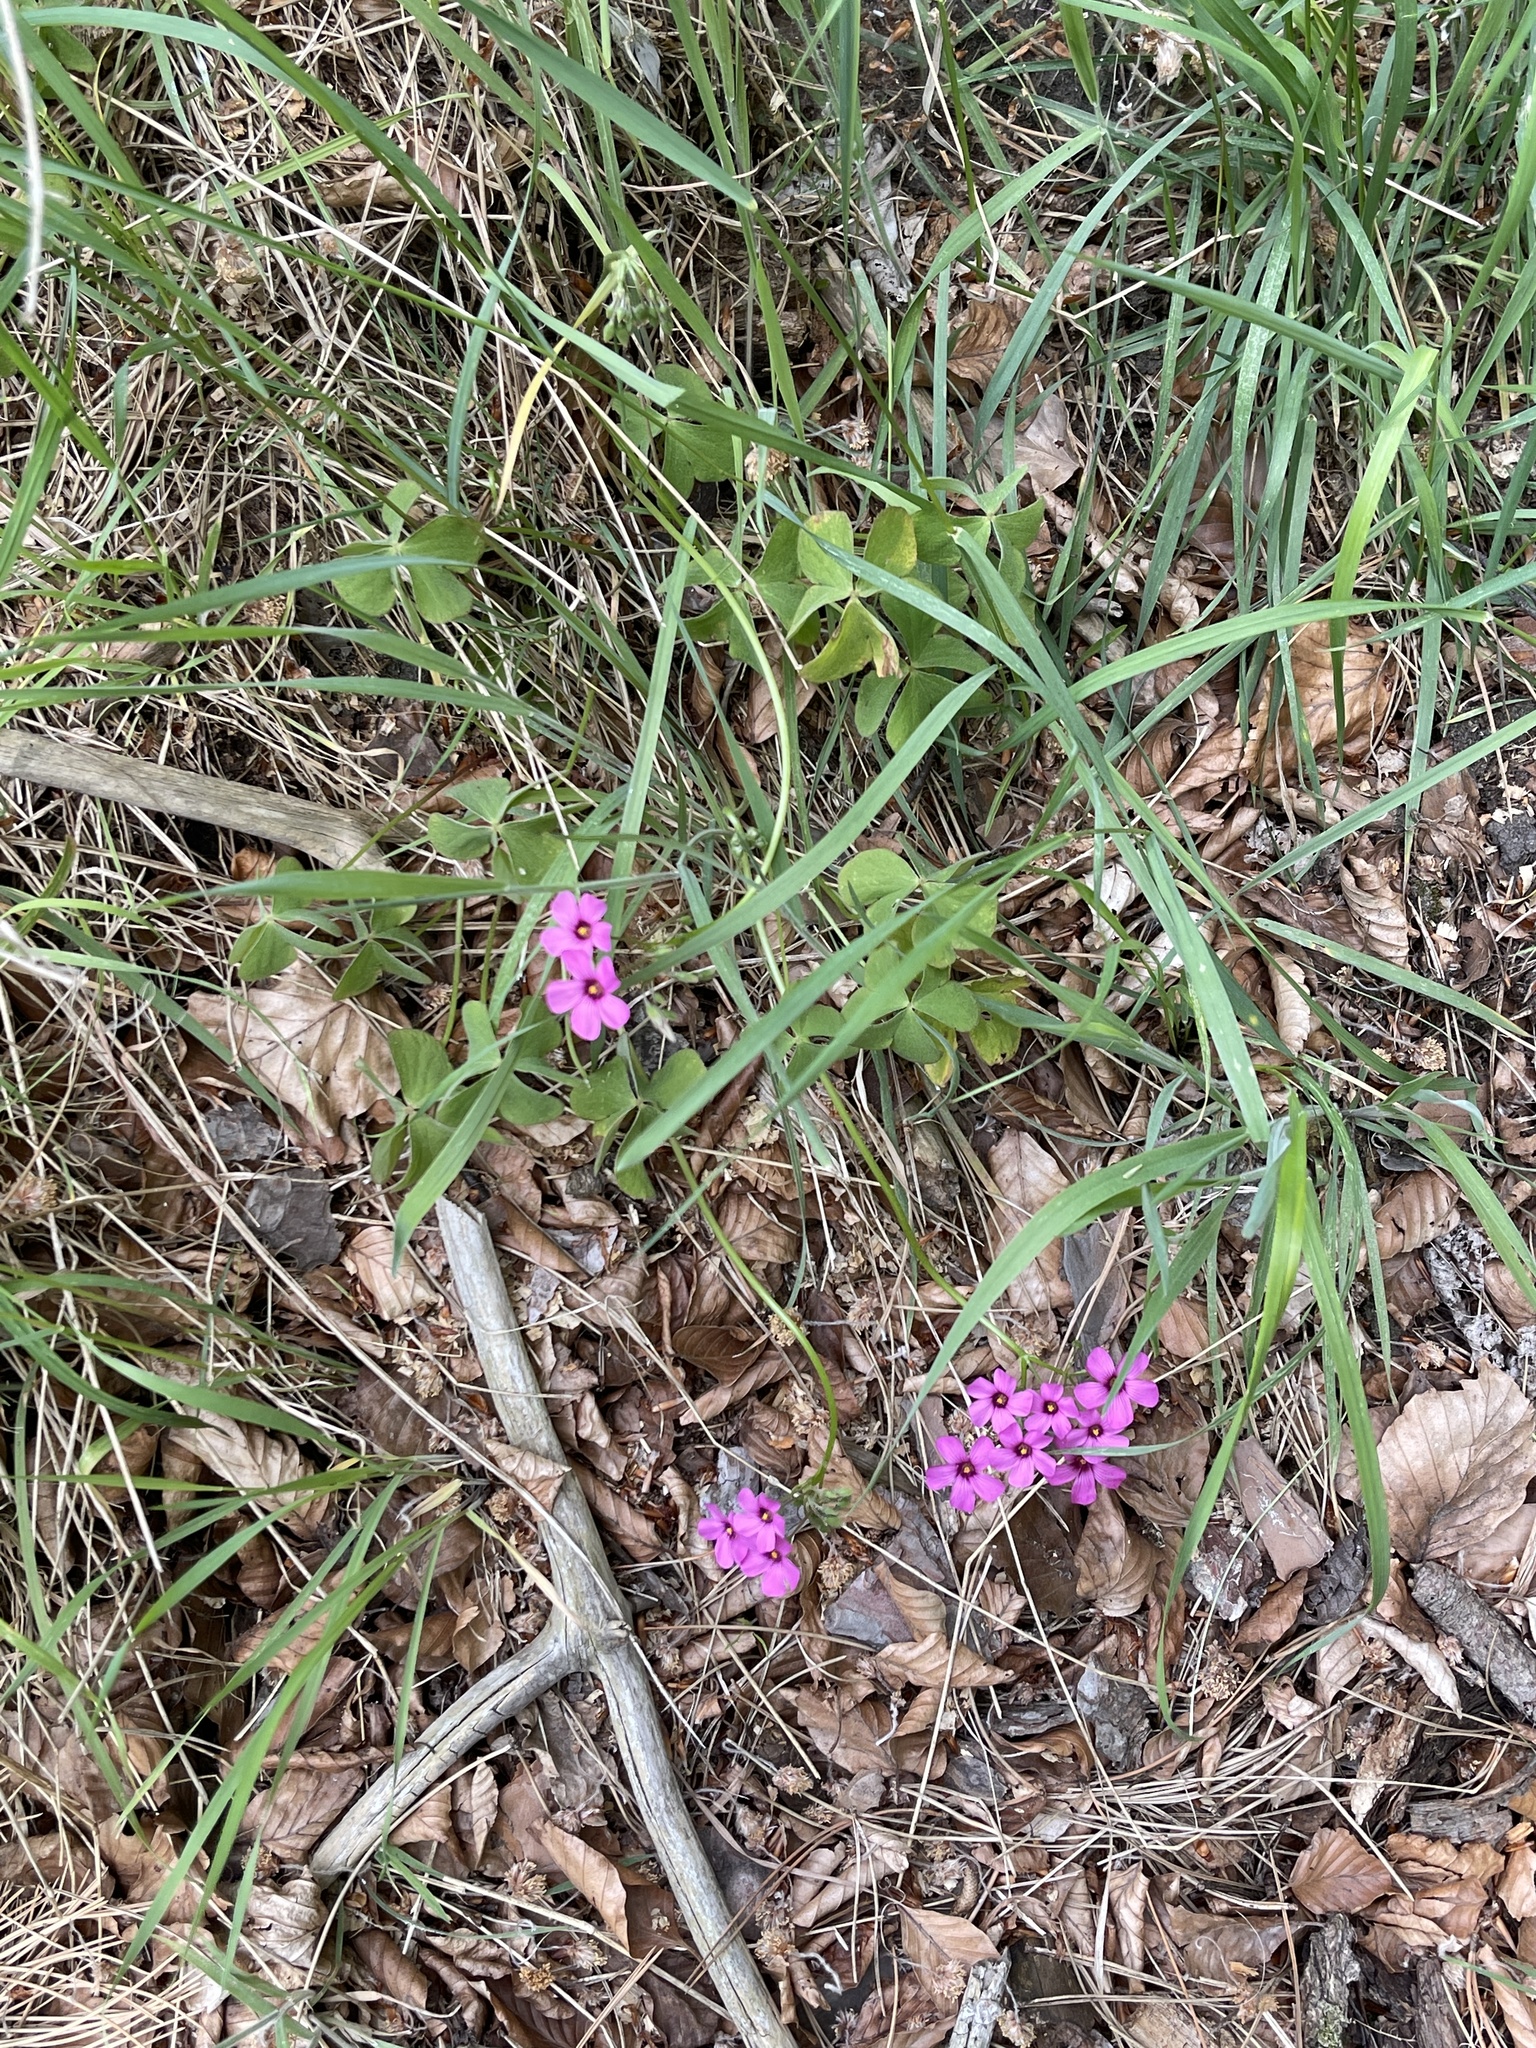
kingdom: Plantae
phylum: Tracheophyta
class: Magnoliopsida
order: Oxalidales
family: Oxalidaceae
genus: Oxalis
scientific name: Oxalis articulata
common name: Pink-sorrel
